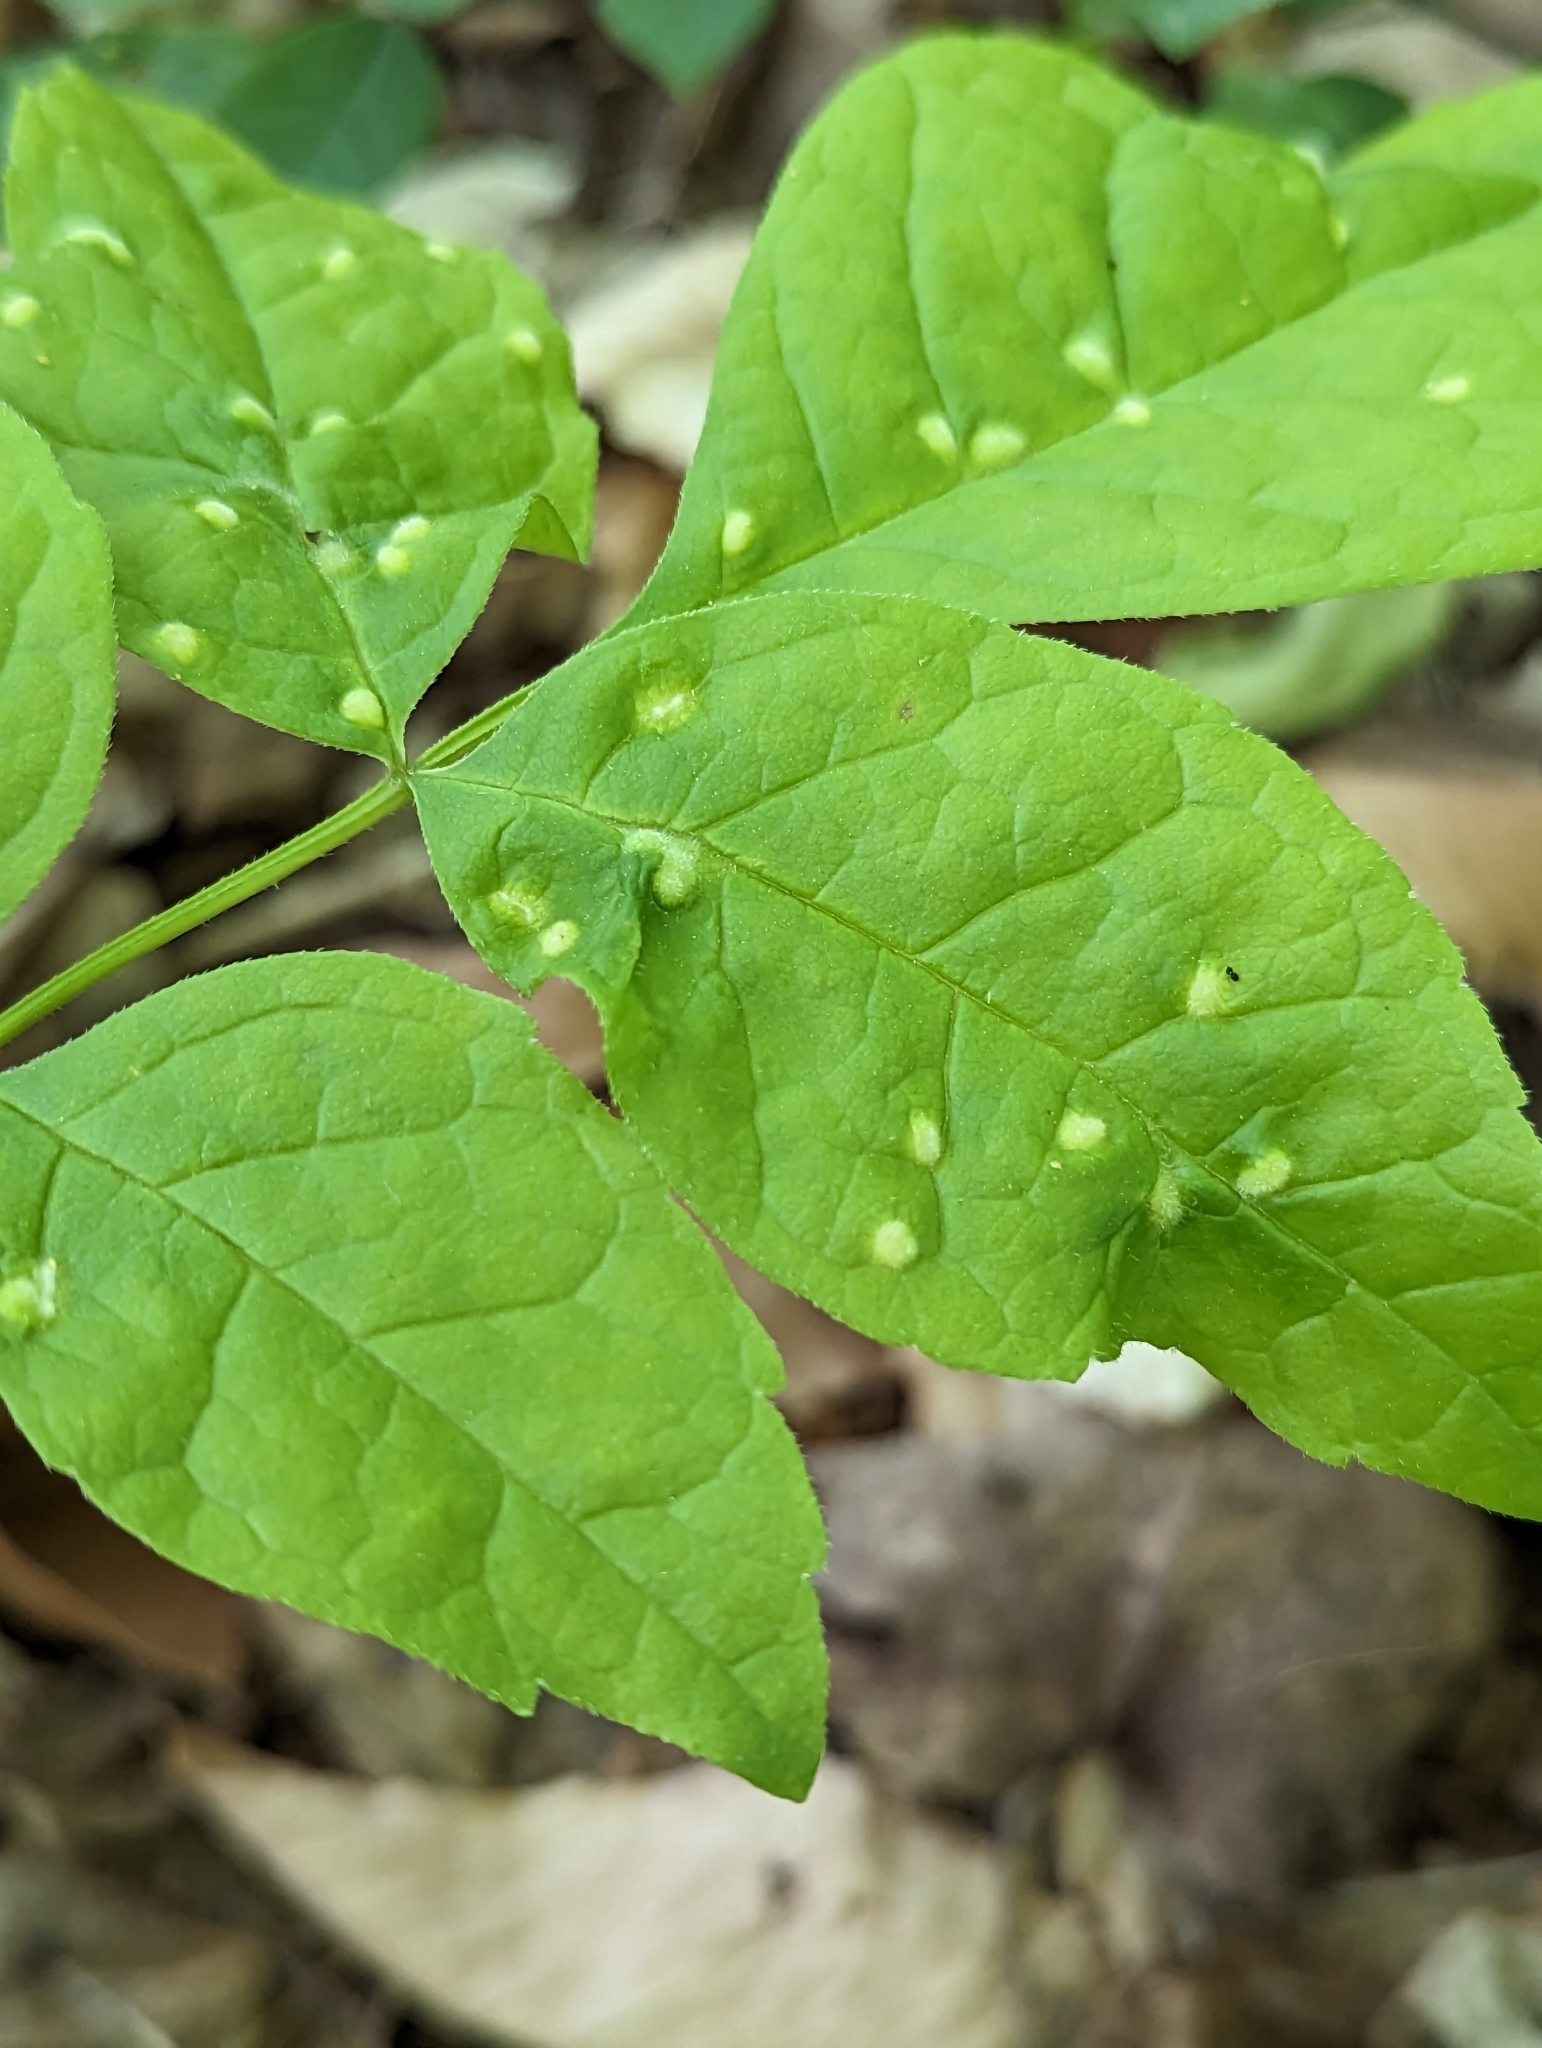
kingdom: Animalia
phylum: Arthropoda
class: Arachnida
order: Trombidiformes
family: Eriophyidae
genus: Aceria
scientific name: Aceria fraxinicola
